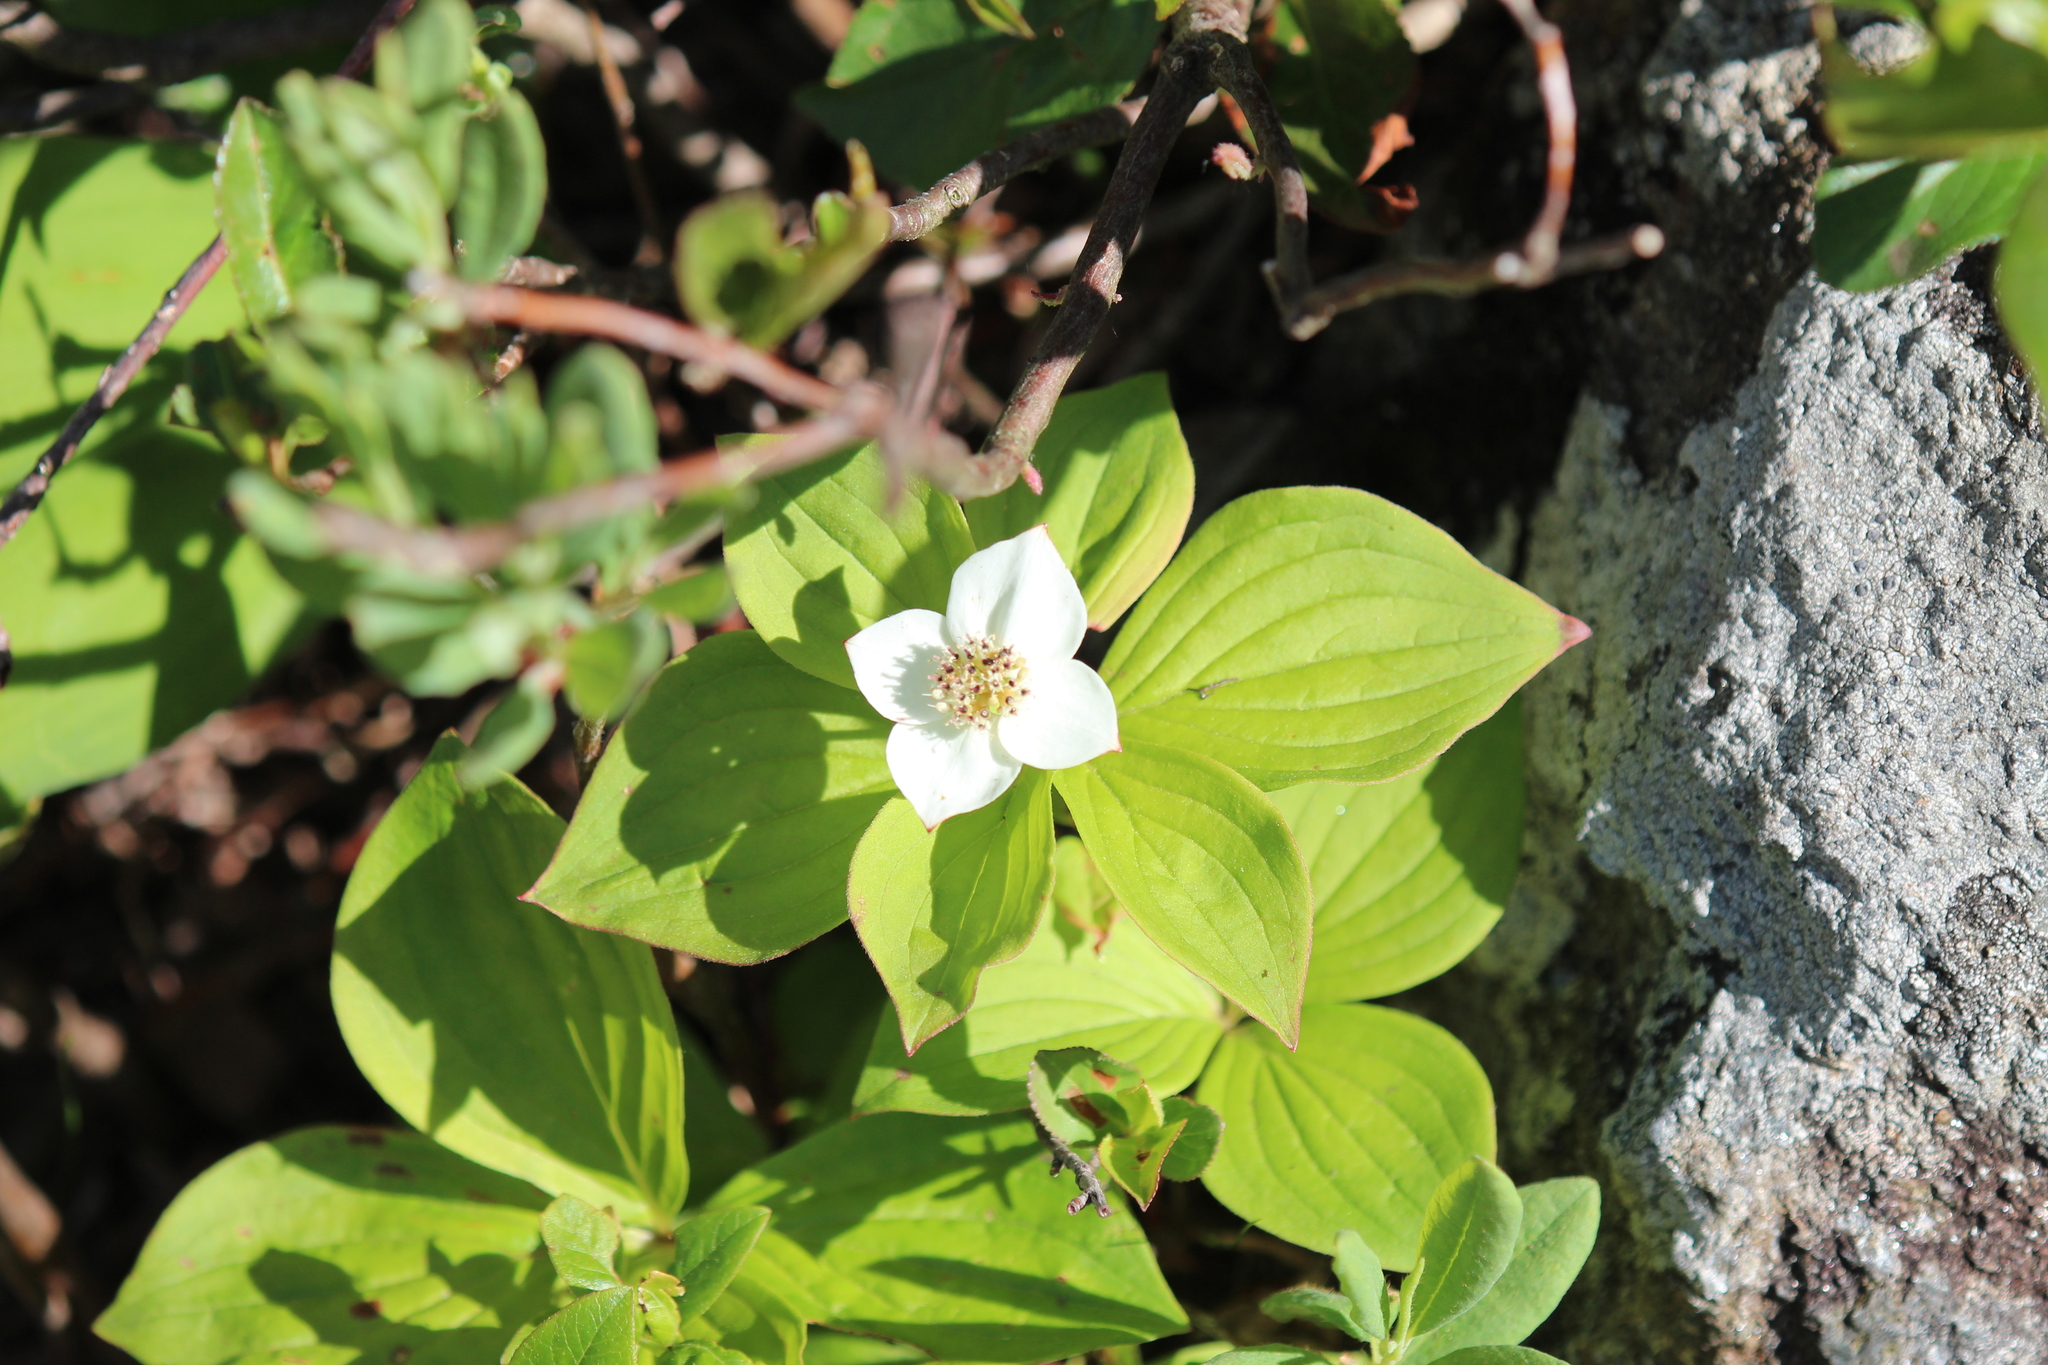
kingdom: Plantae
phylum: Tracheophyta
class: Magnoliopsida
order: Cornales
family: Cornaceae
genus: Cornus
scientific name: Cornus canadensis
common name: Creeping dogwood
